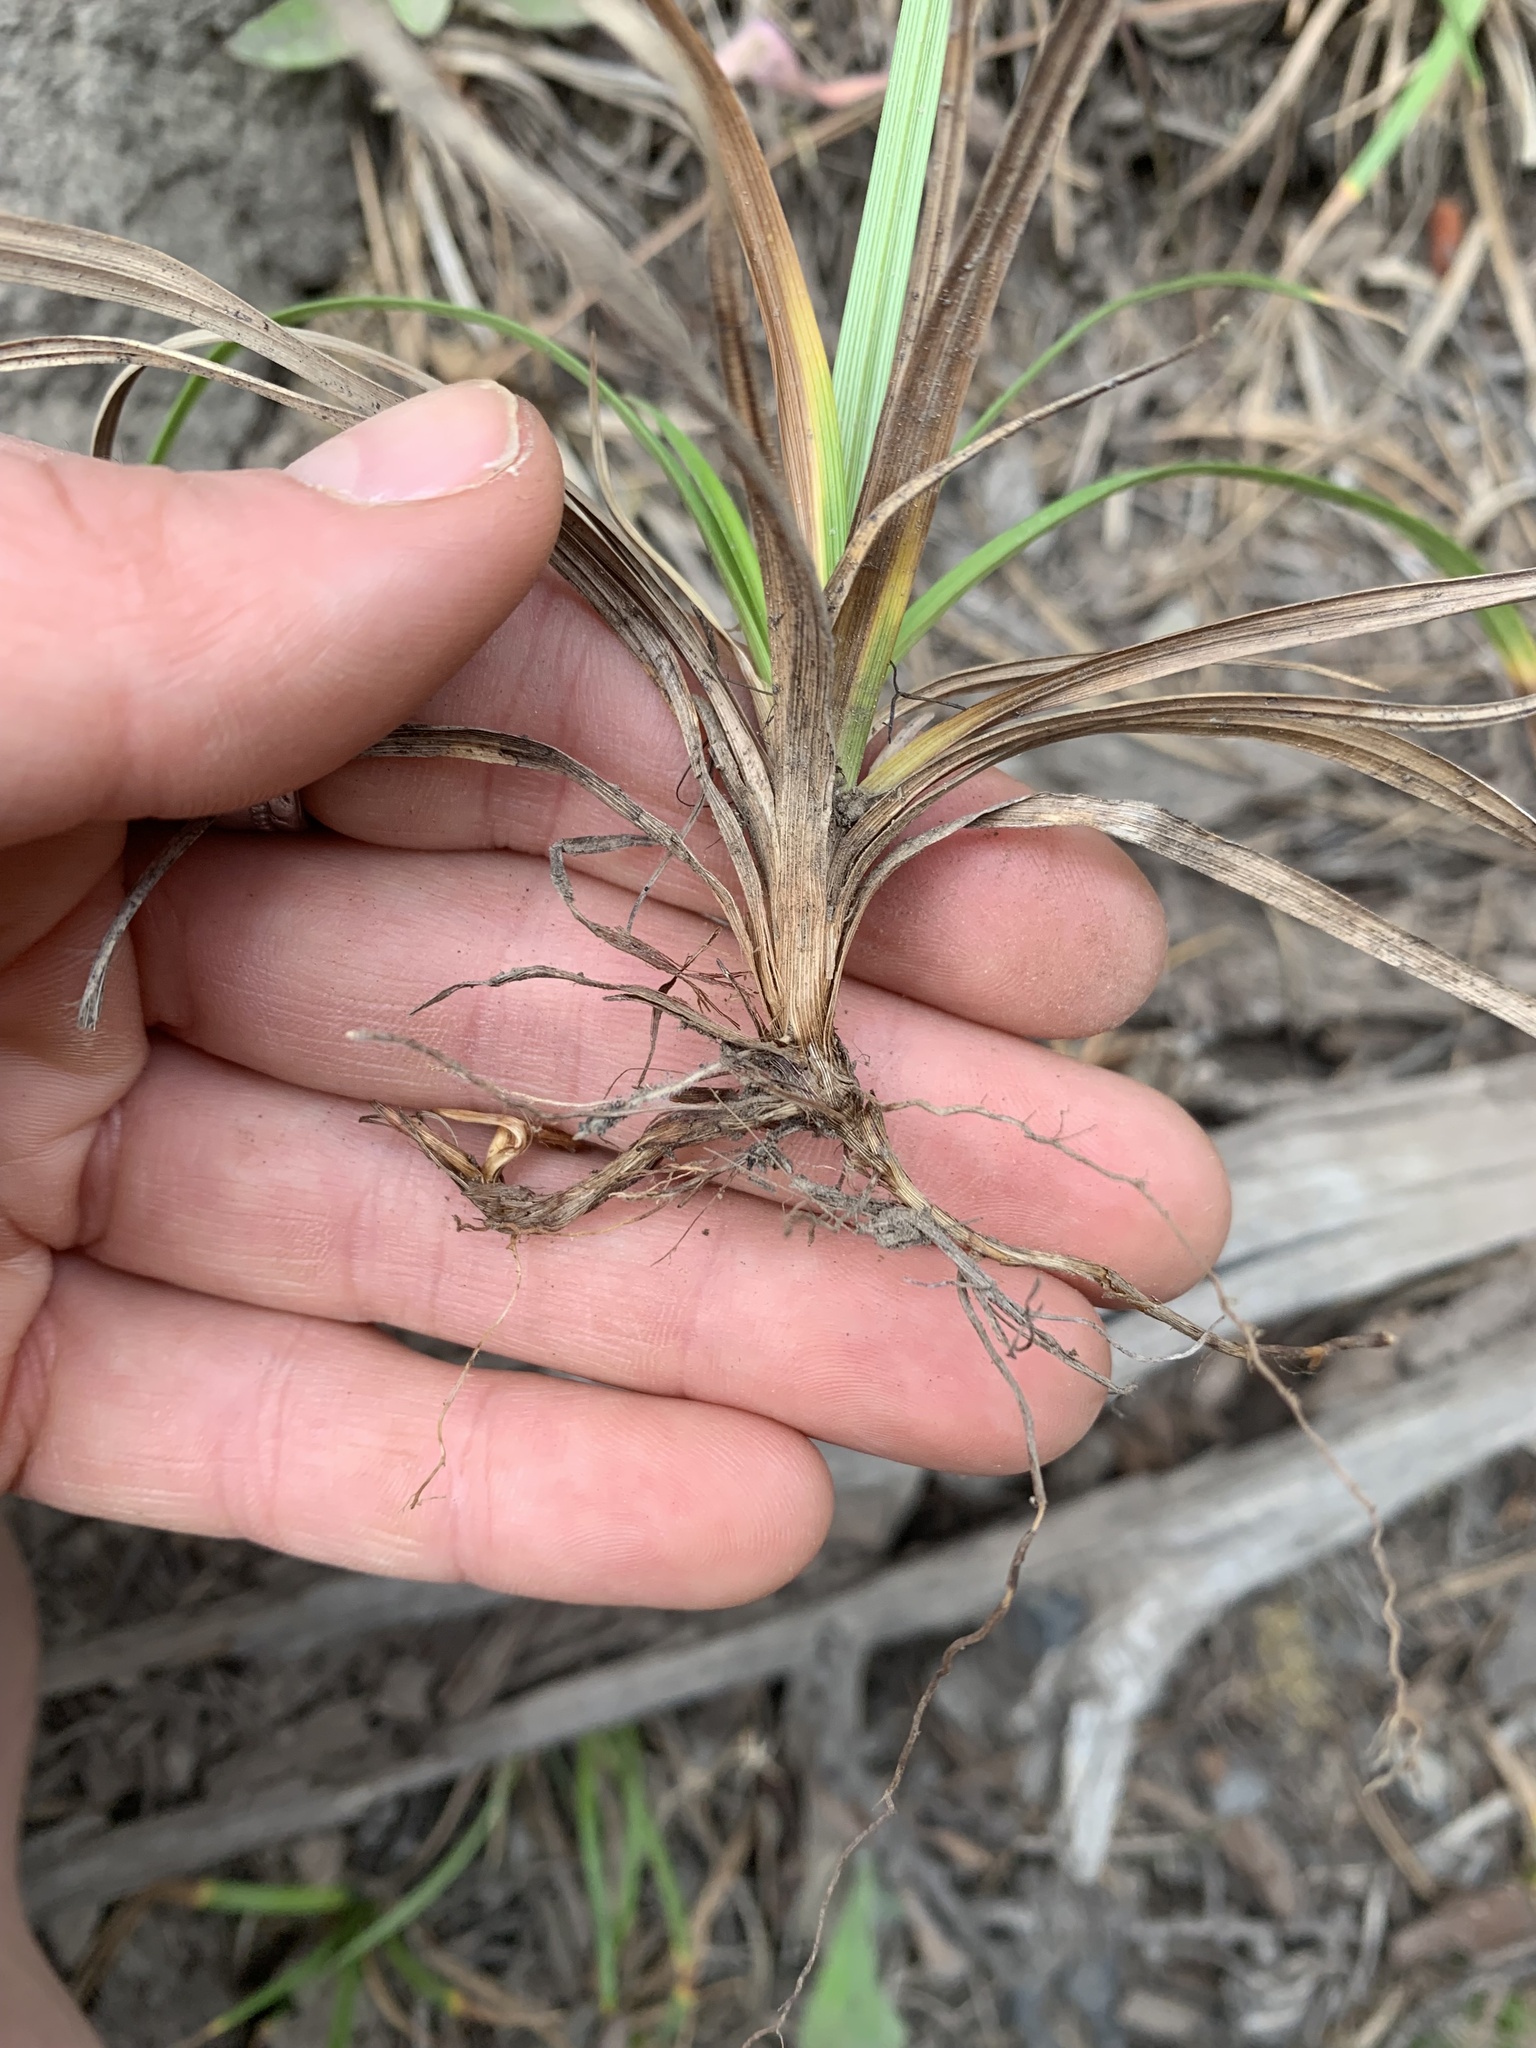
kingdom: Plantae
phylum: Tracheophyta
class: Liliopsida
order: Poales
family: Cyperaceae
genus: Carex
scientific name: Carex concinnoides
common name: Northwest sedge
